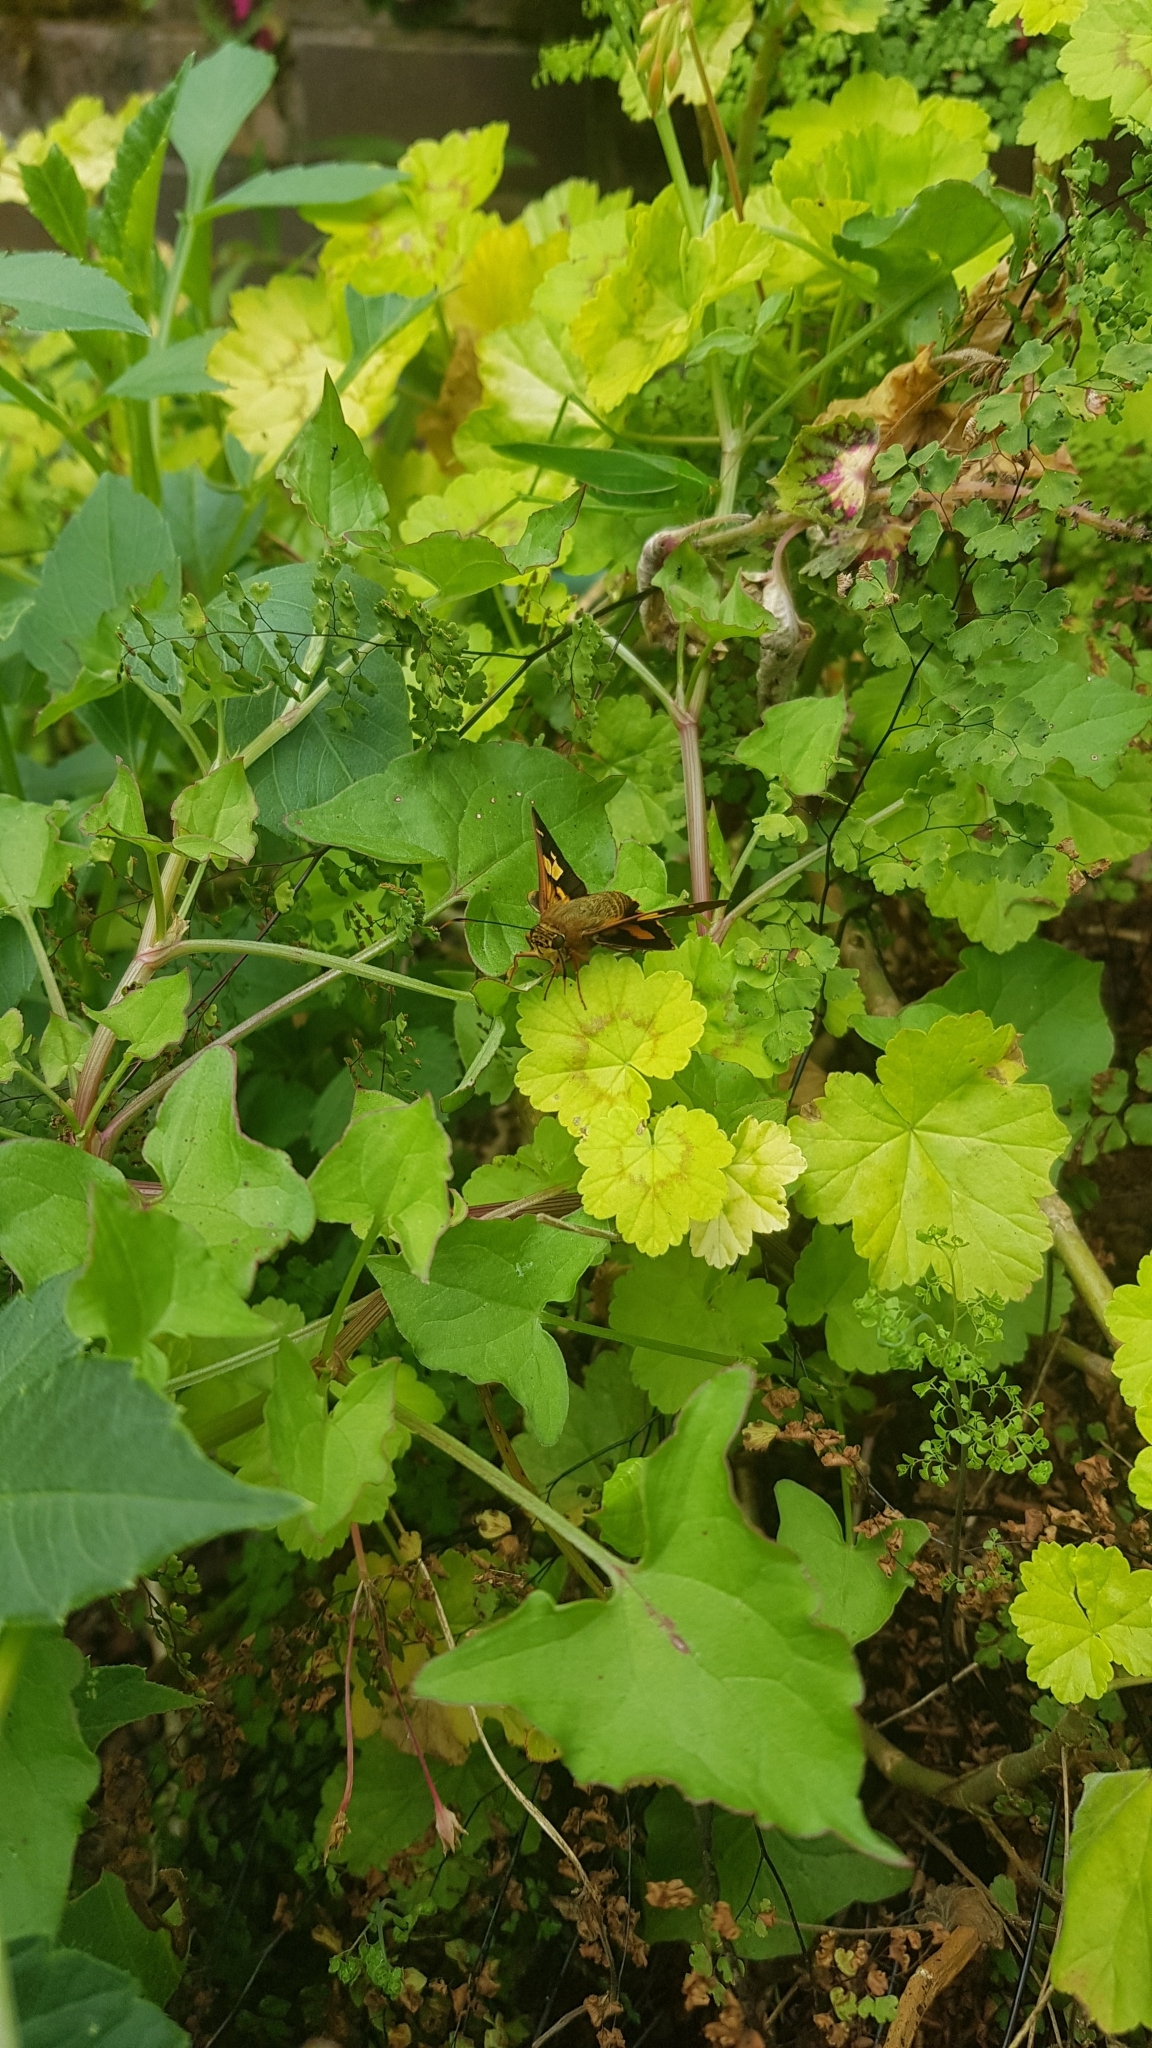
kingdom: Animalia
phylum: Arthropoda
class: Insecta
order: Lepidoptera
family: Hesperiidae
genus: Trapezites
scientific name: Trapezites symmomus
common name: Splendid ochre
